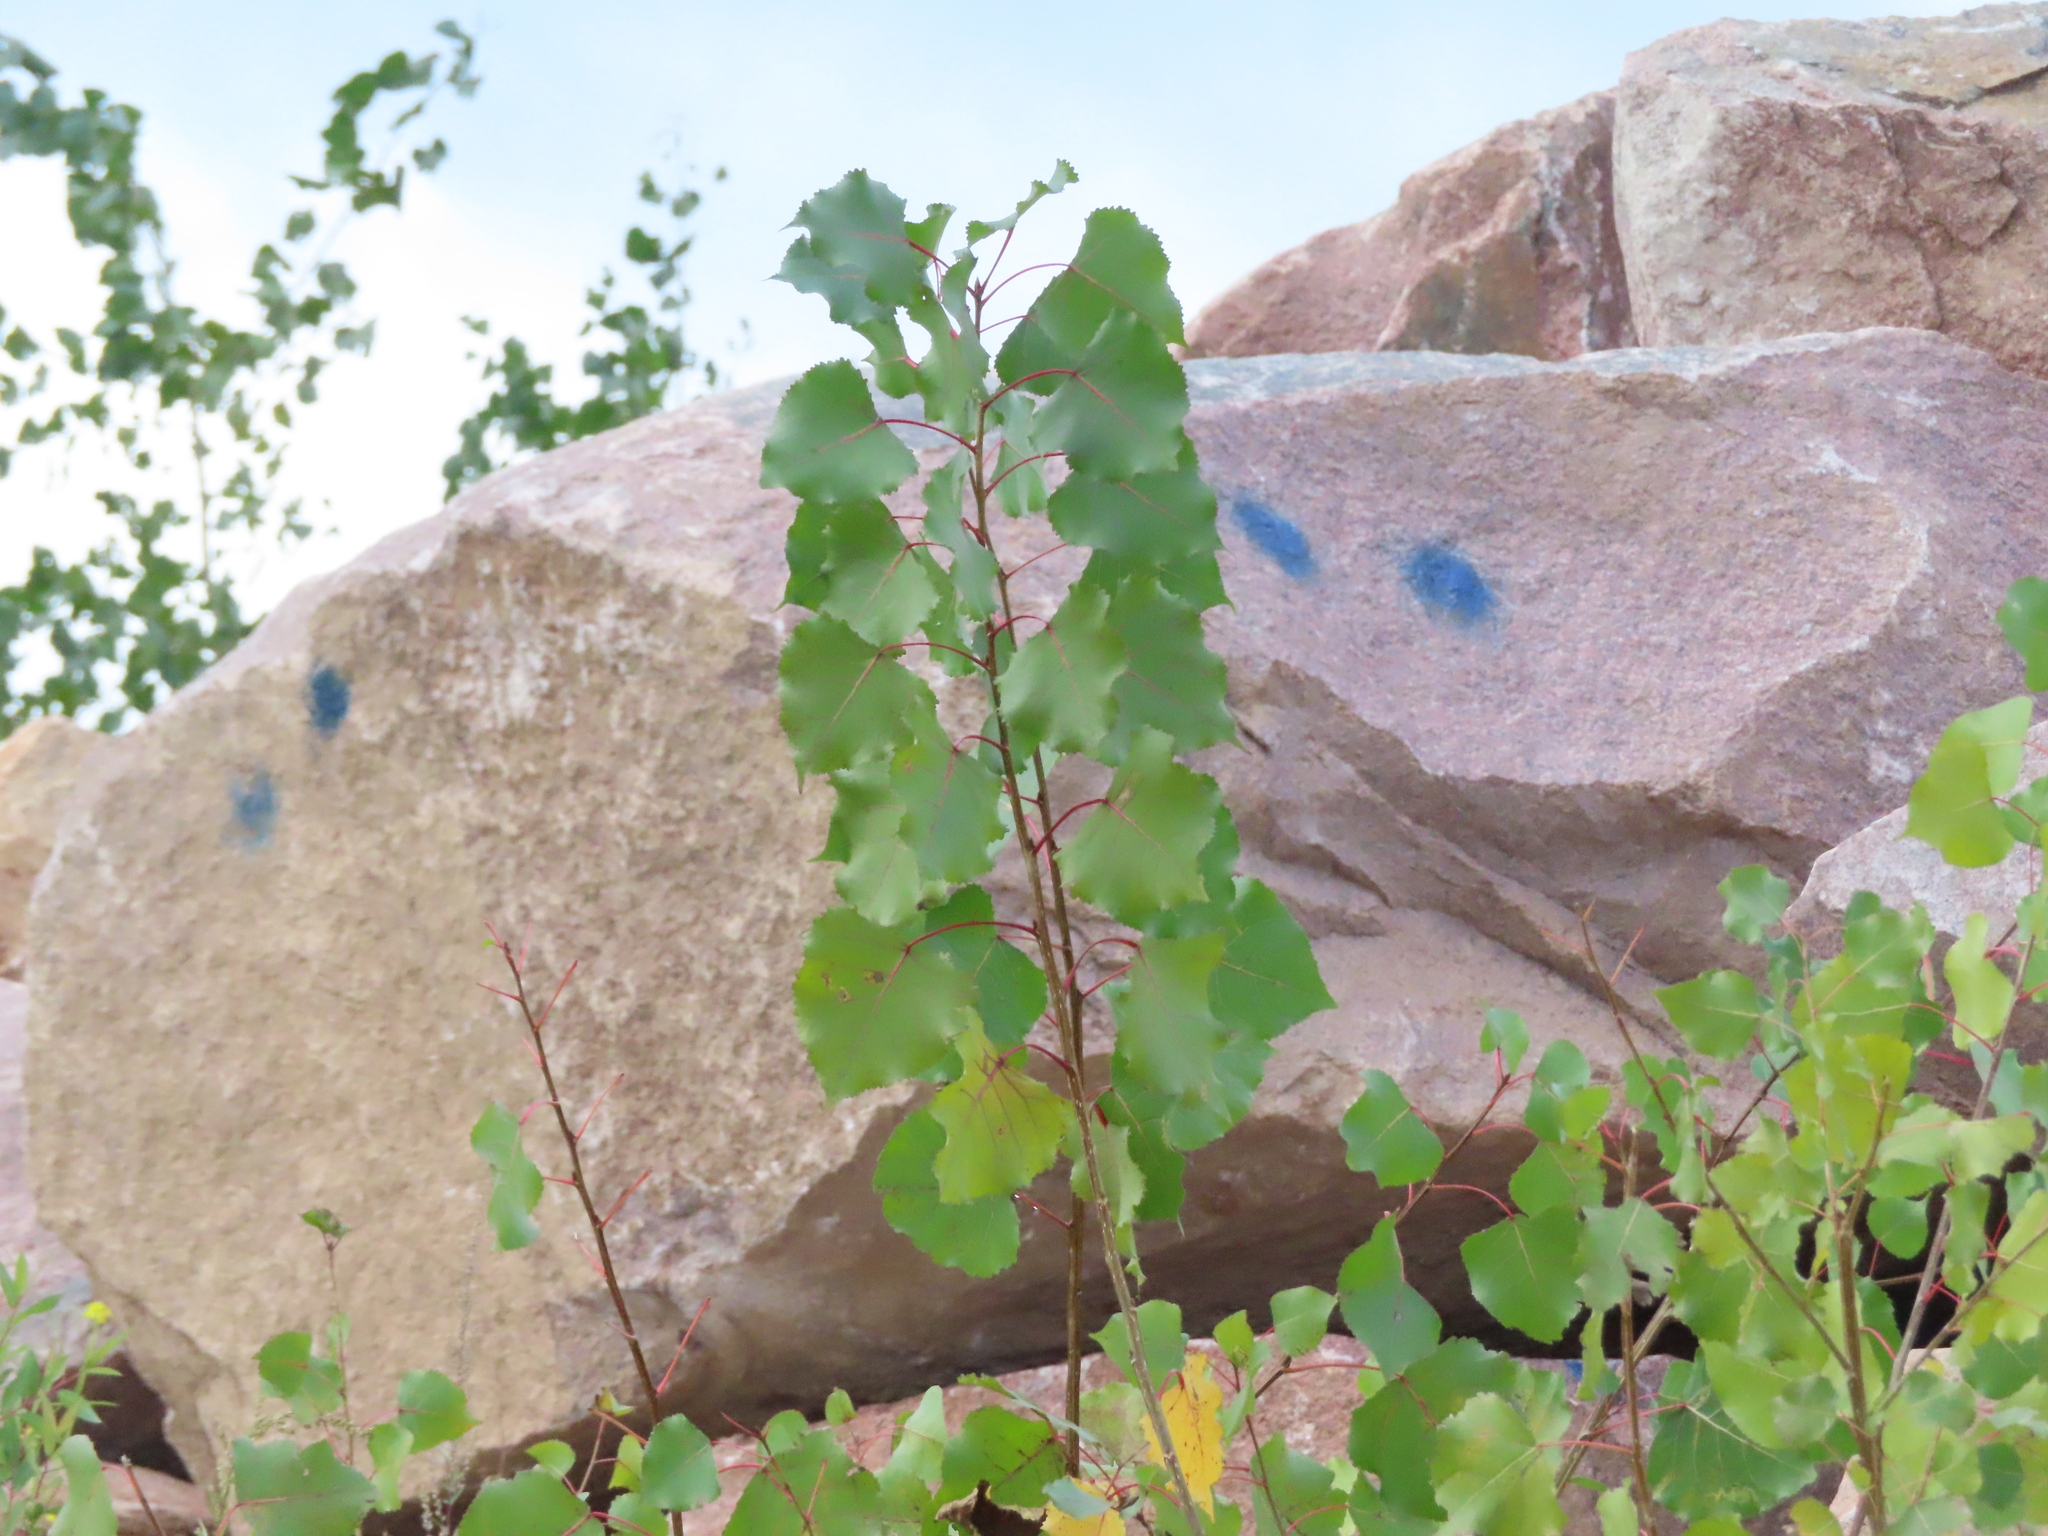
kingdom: Plantae
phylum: Tracheophyta
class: Magnoliopsida
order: Malpighiales
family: Salicaceae
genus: Populus
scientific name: Populus deltoides
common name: Eastern cottonwood
